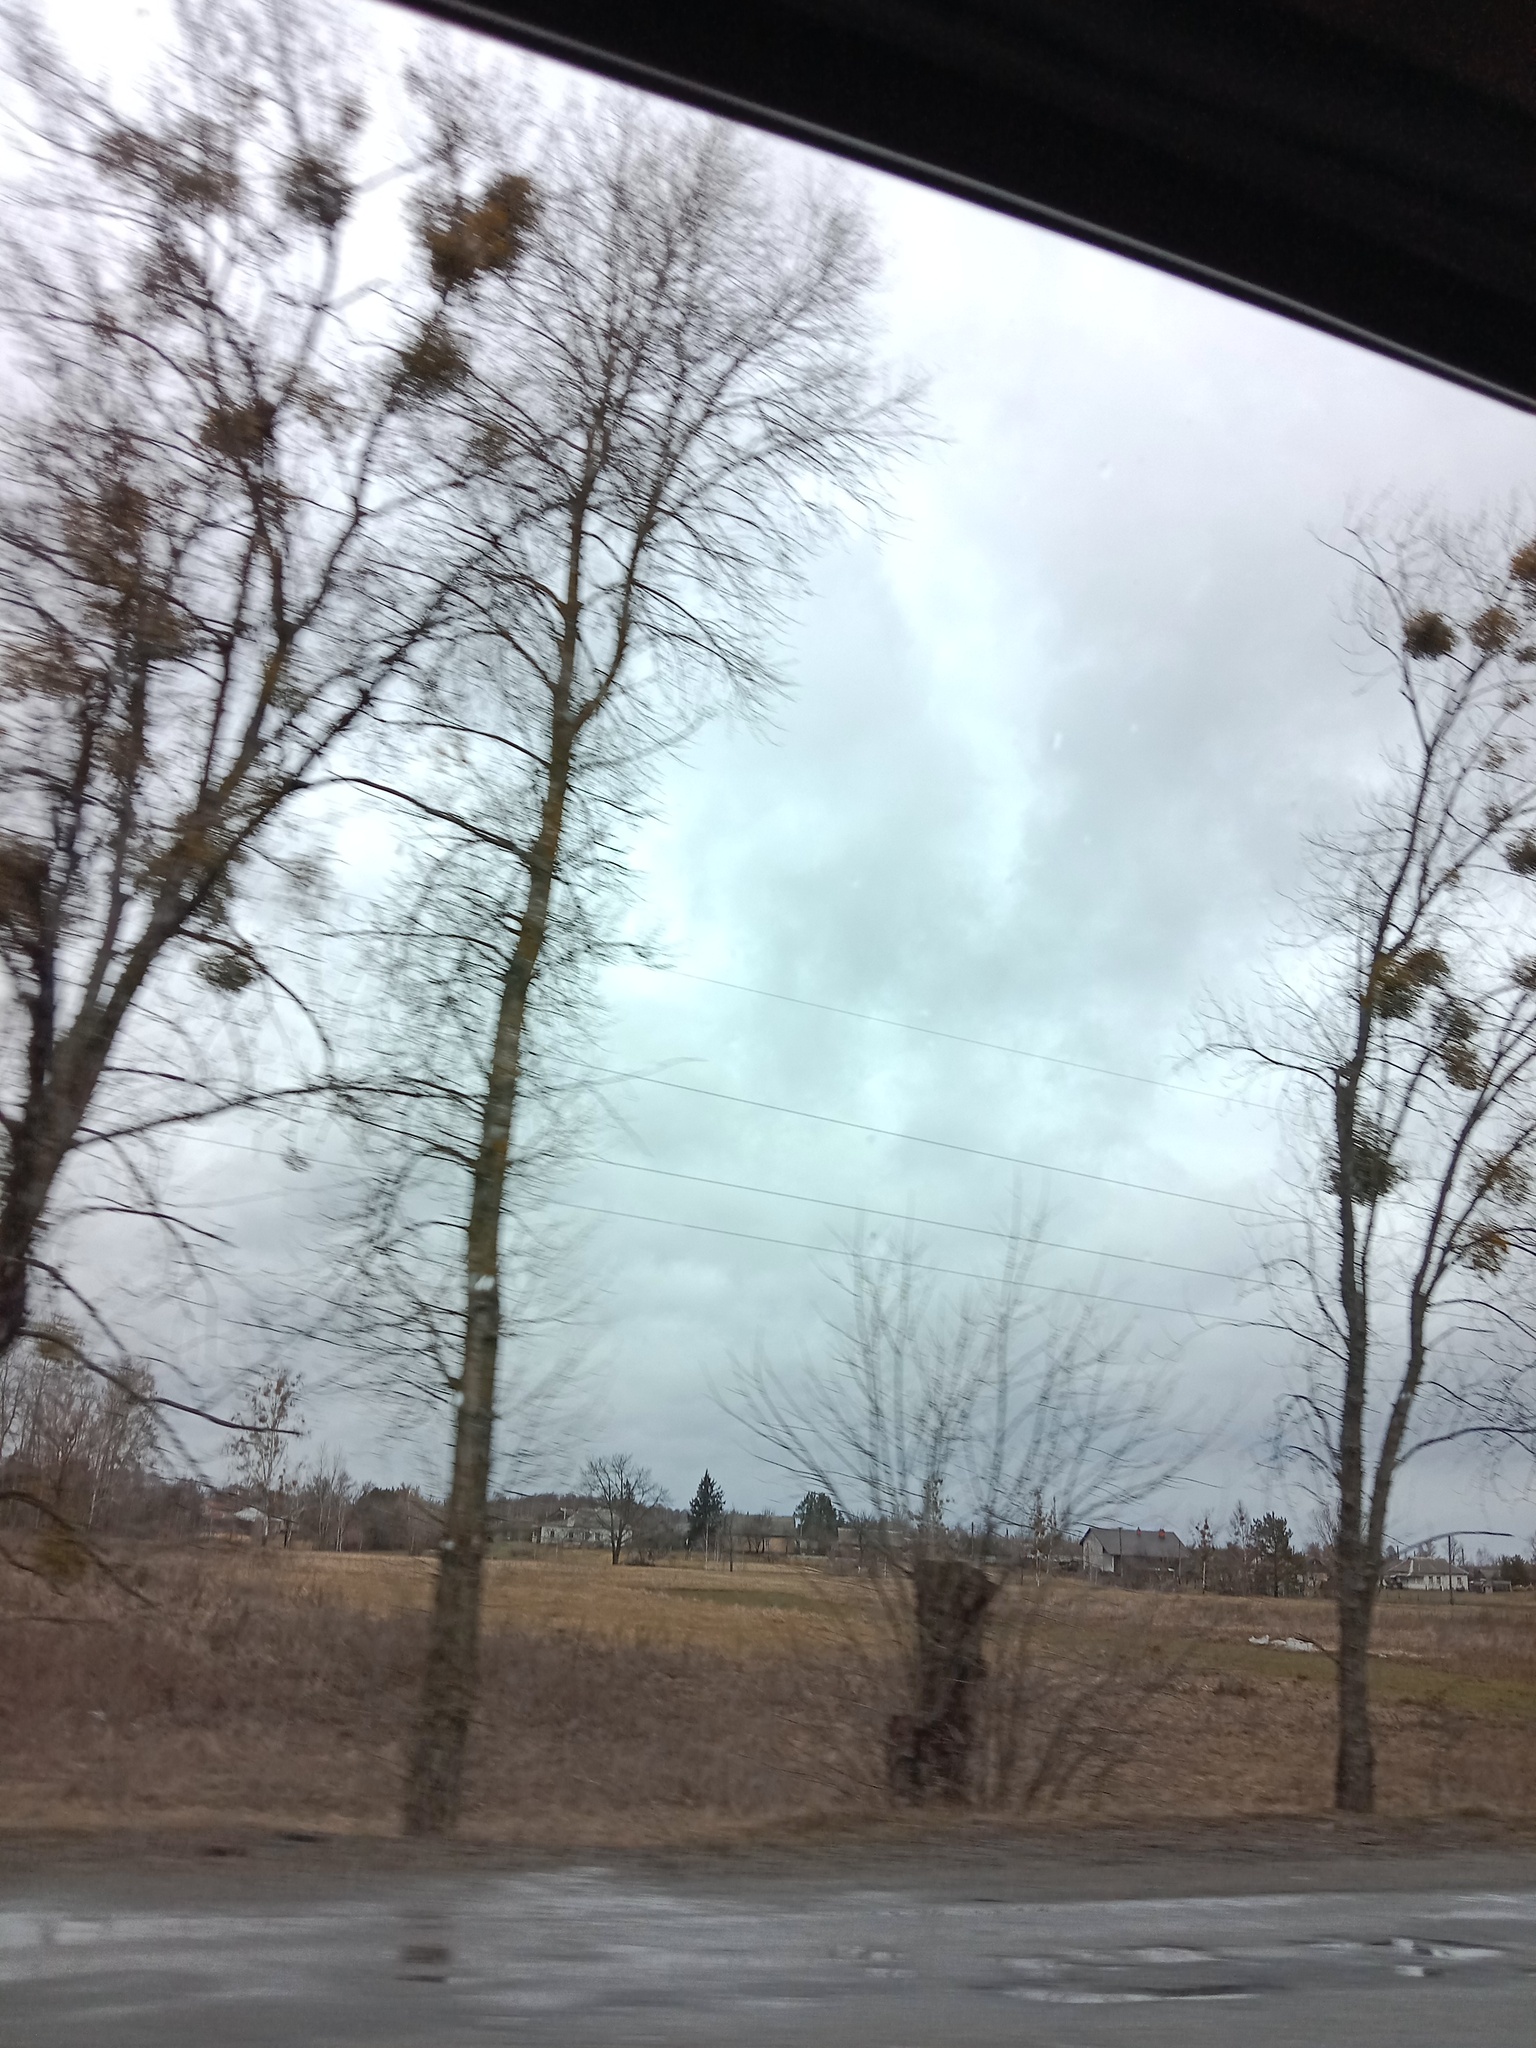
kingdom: Plantae
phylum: Tracheophyta
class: Magnoliopsida
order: Santalales
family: Viscaceae
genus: Viscum
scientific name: Viscum album
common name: Mistletoe
